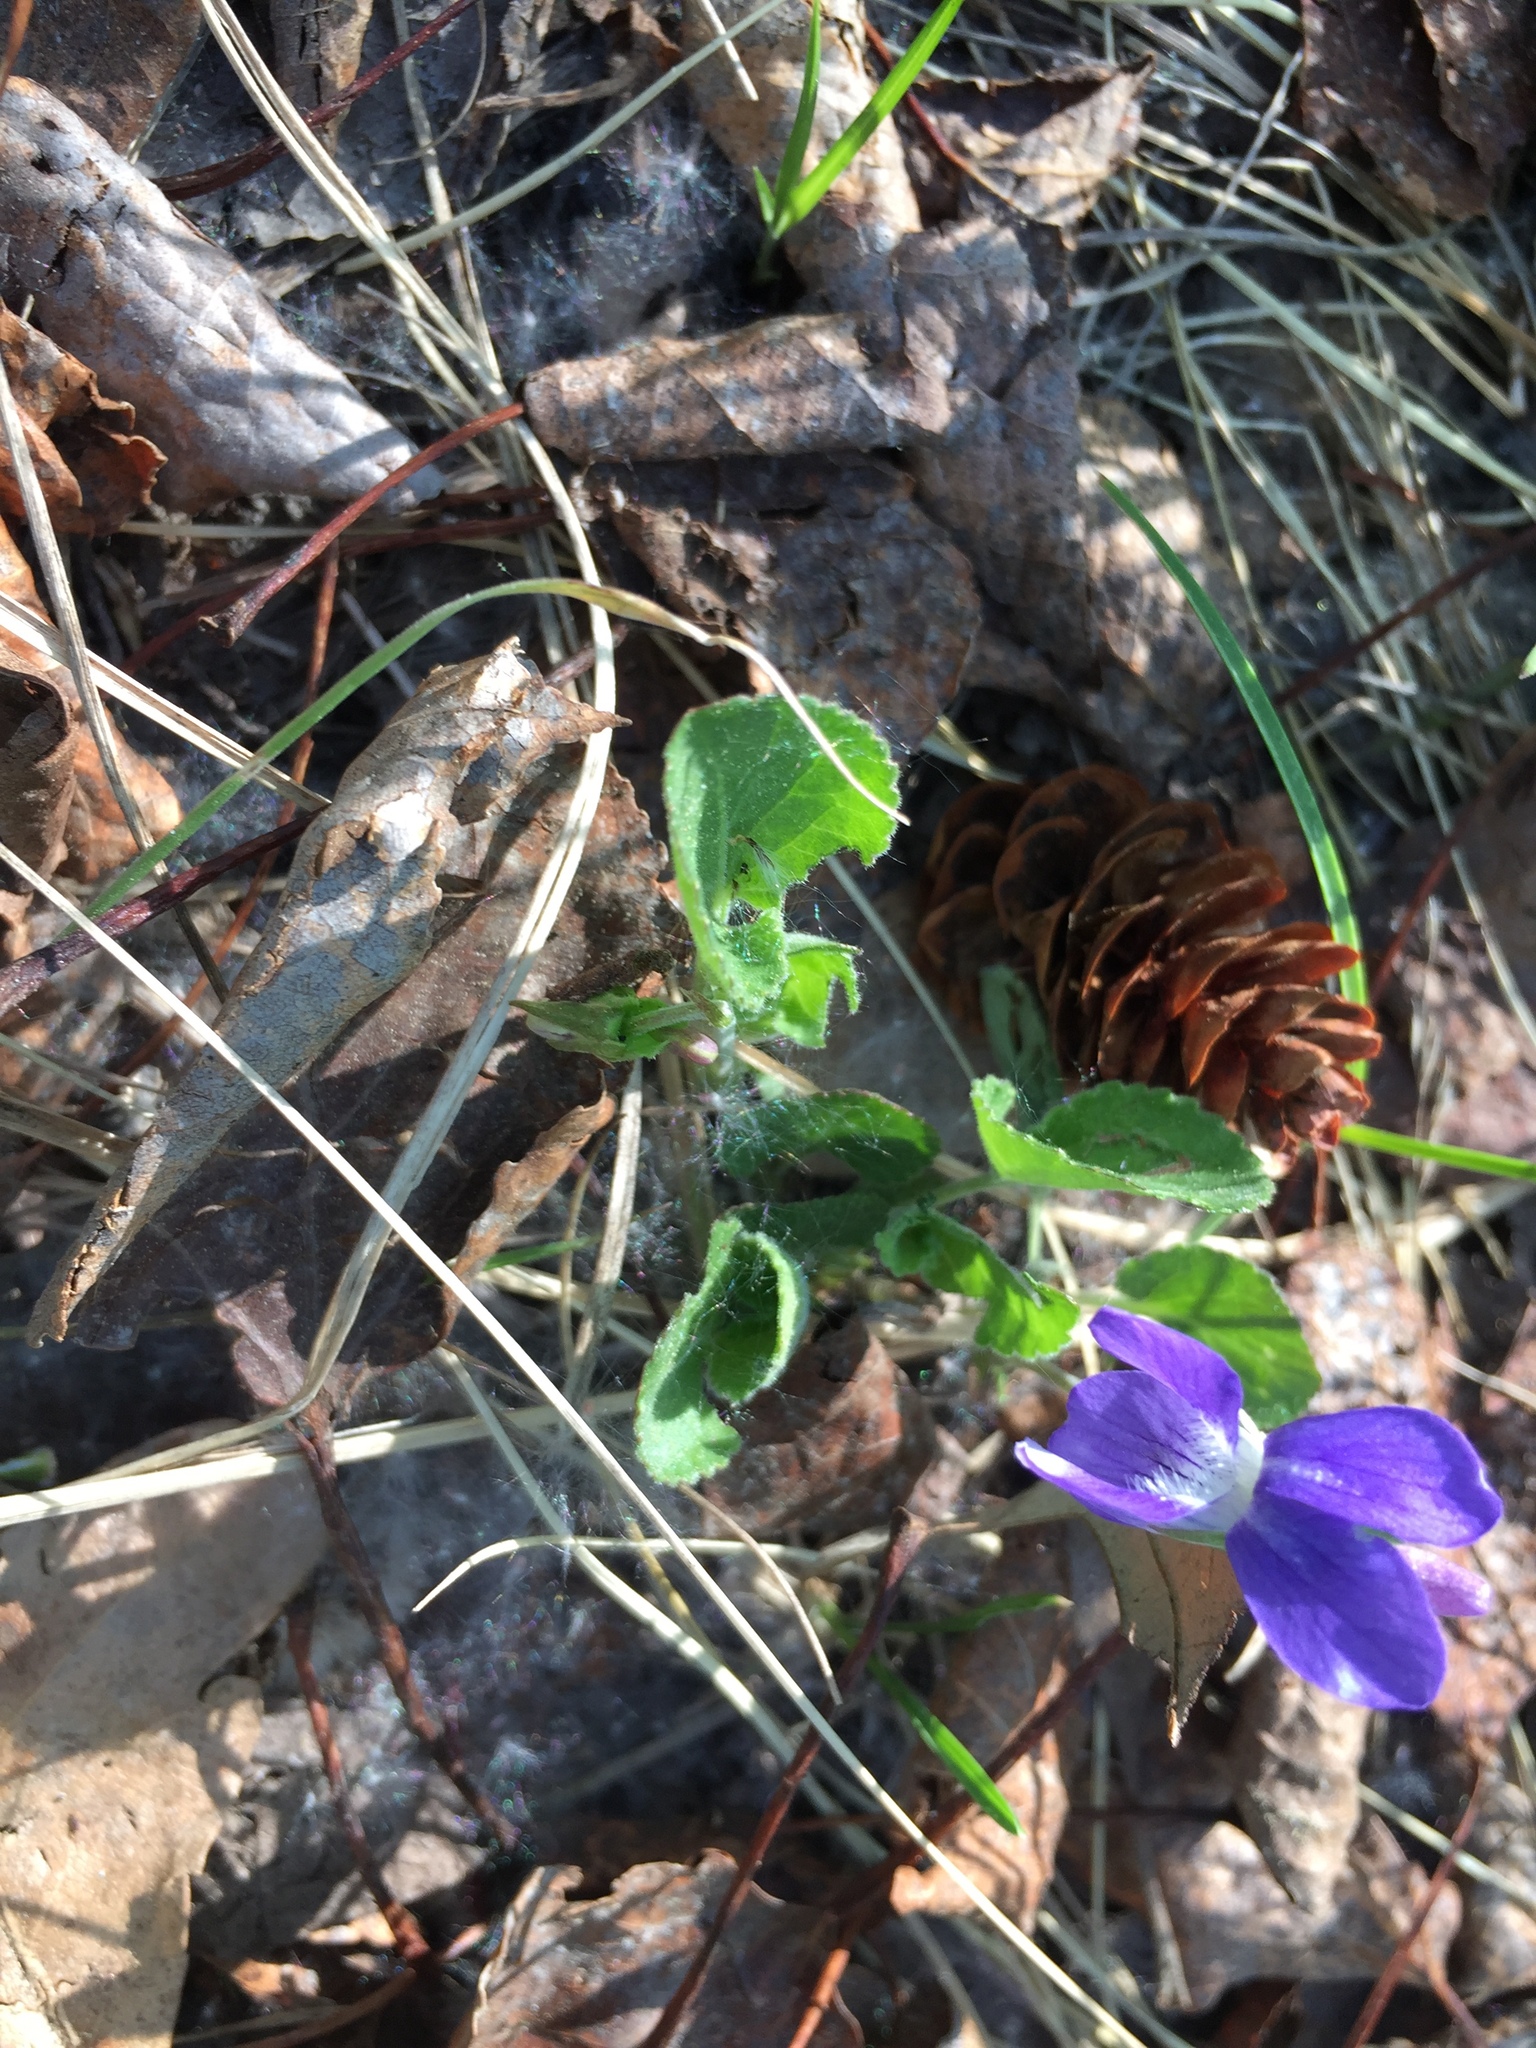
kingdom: Plantae
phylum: Tracheophyta
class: Magnoliopsida
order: Malpighiales
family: Violaceae
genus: Viola
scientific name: Viola adunca
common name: Sand violet
